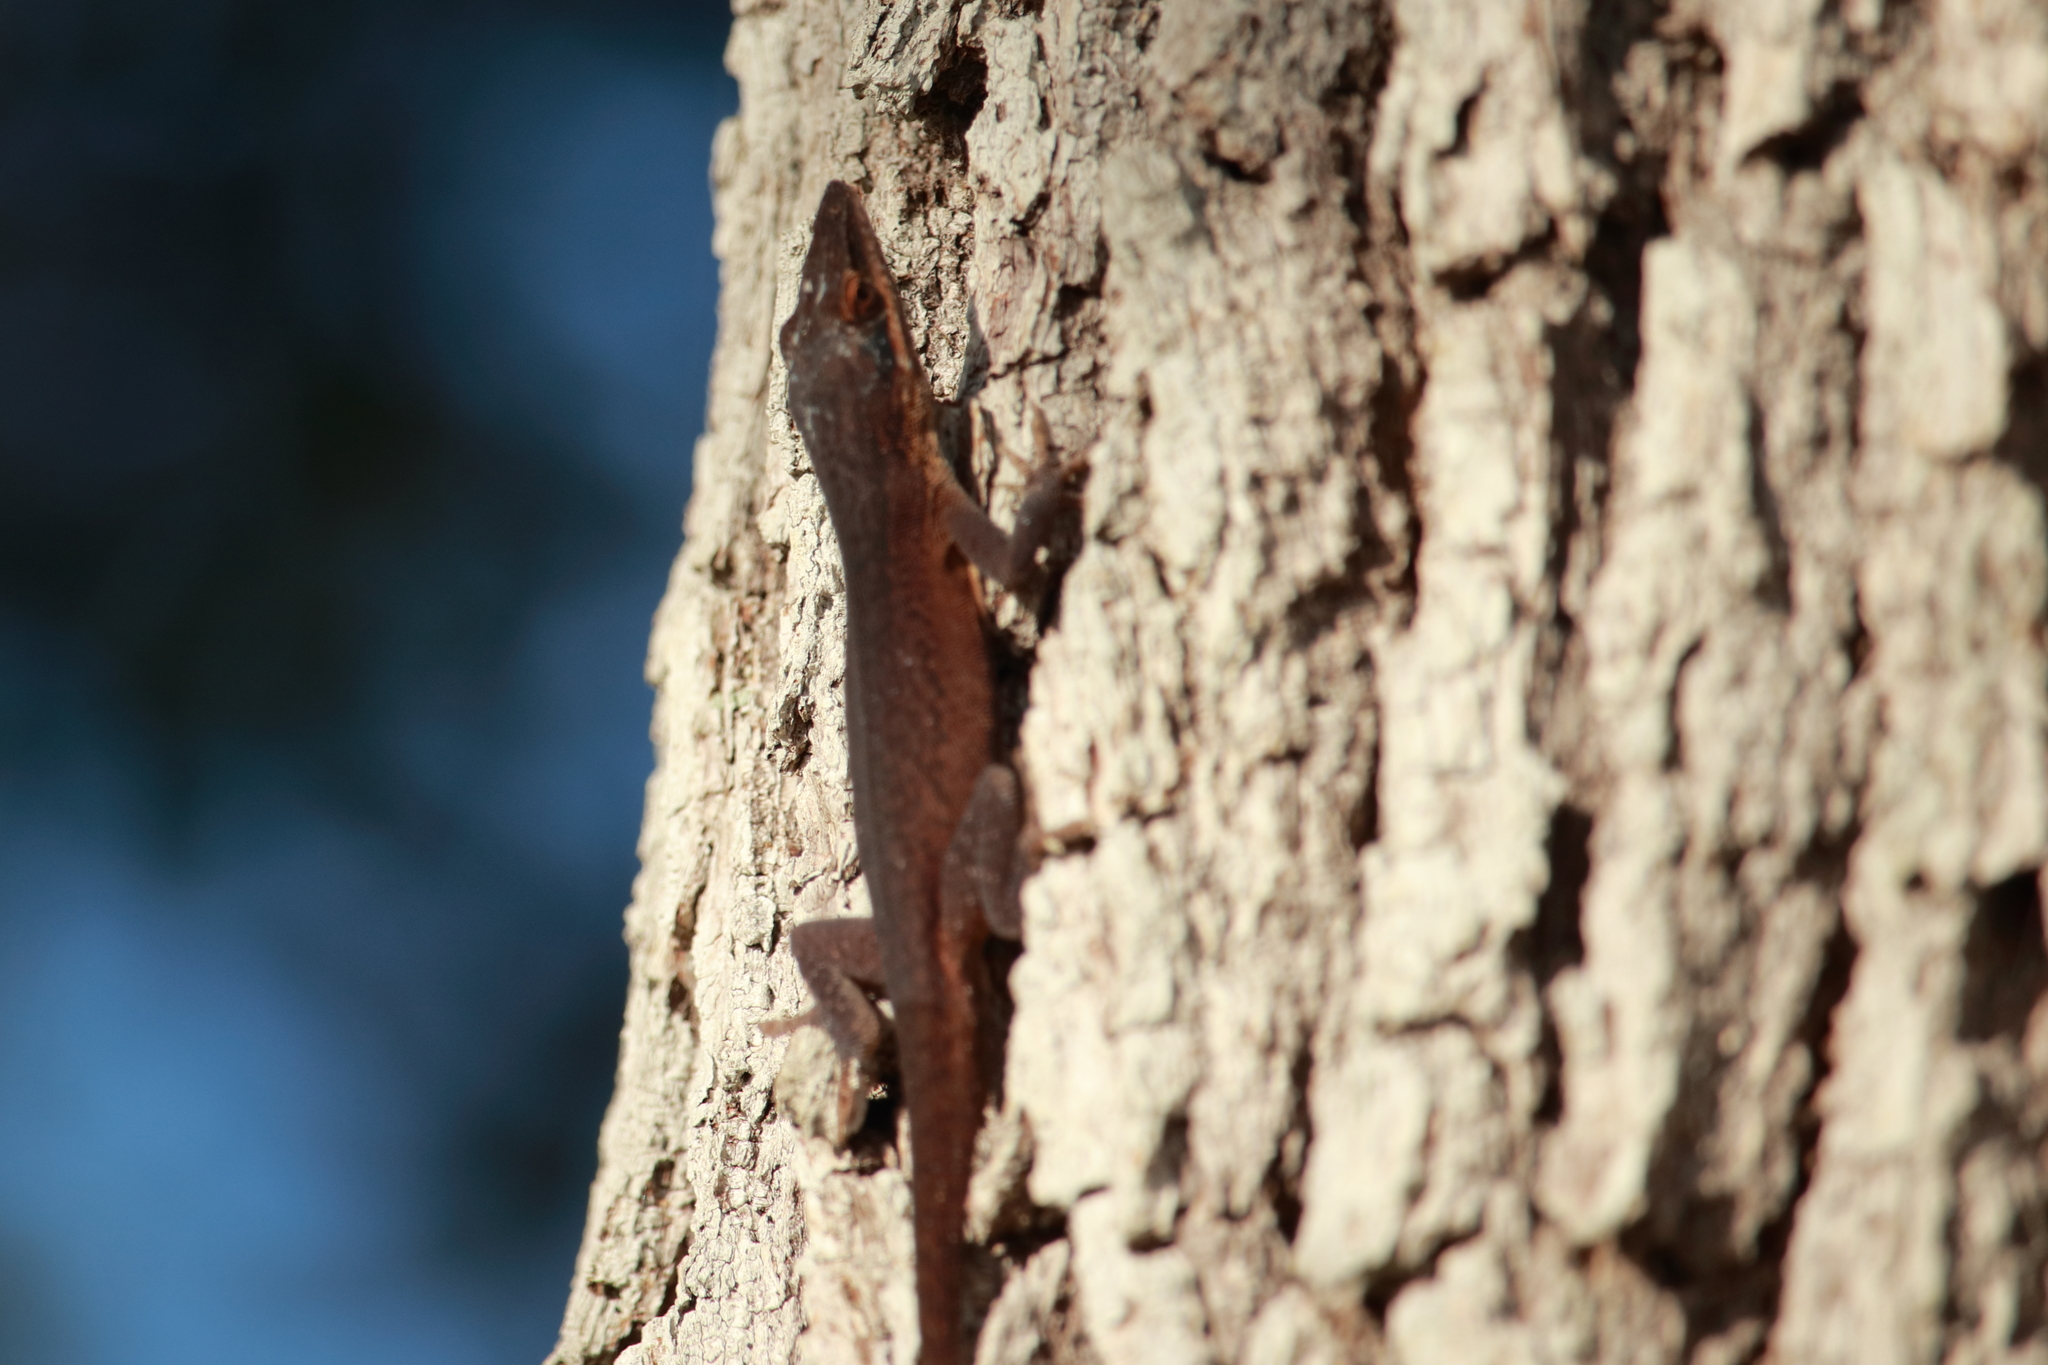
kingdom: Animalia
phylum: Chordata
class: Squamata
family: Dactyloidae
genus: Anolis
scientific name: Anolis carolinensis
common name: Green anole
